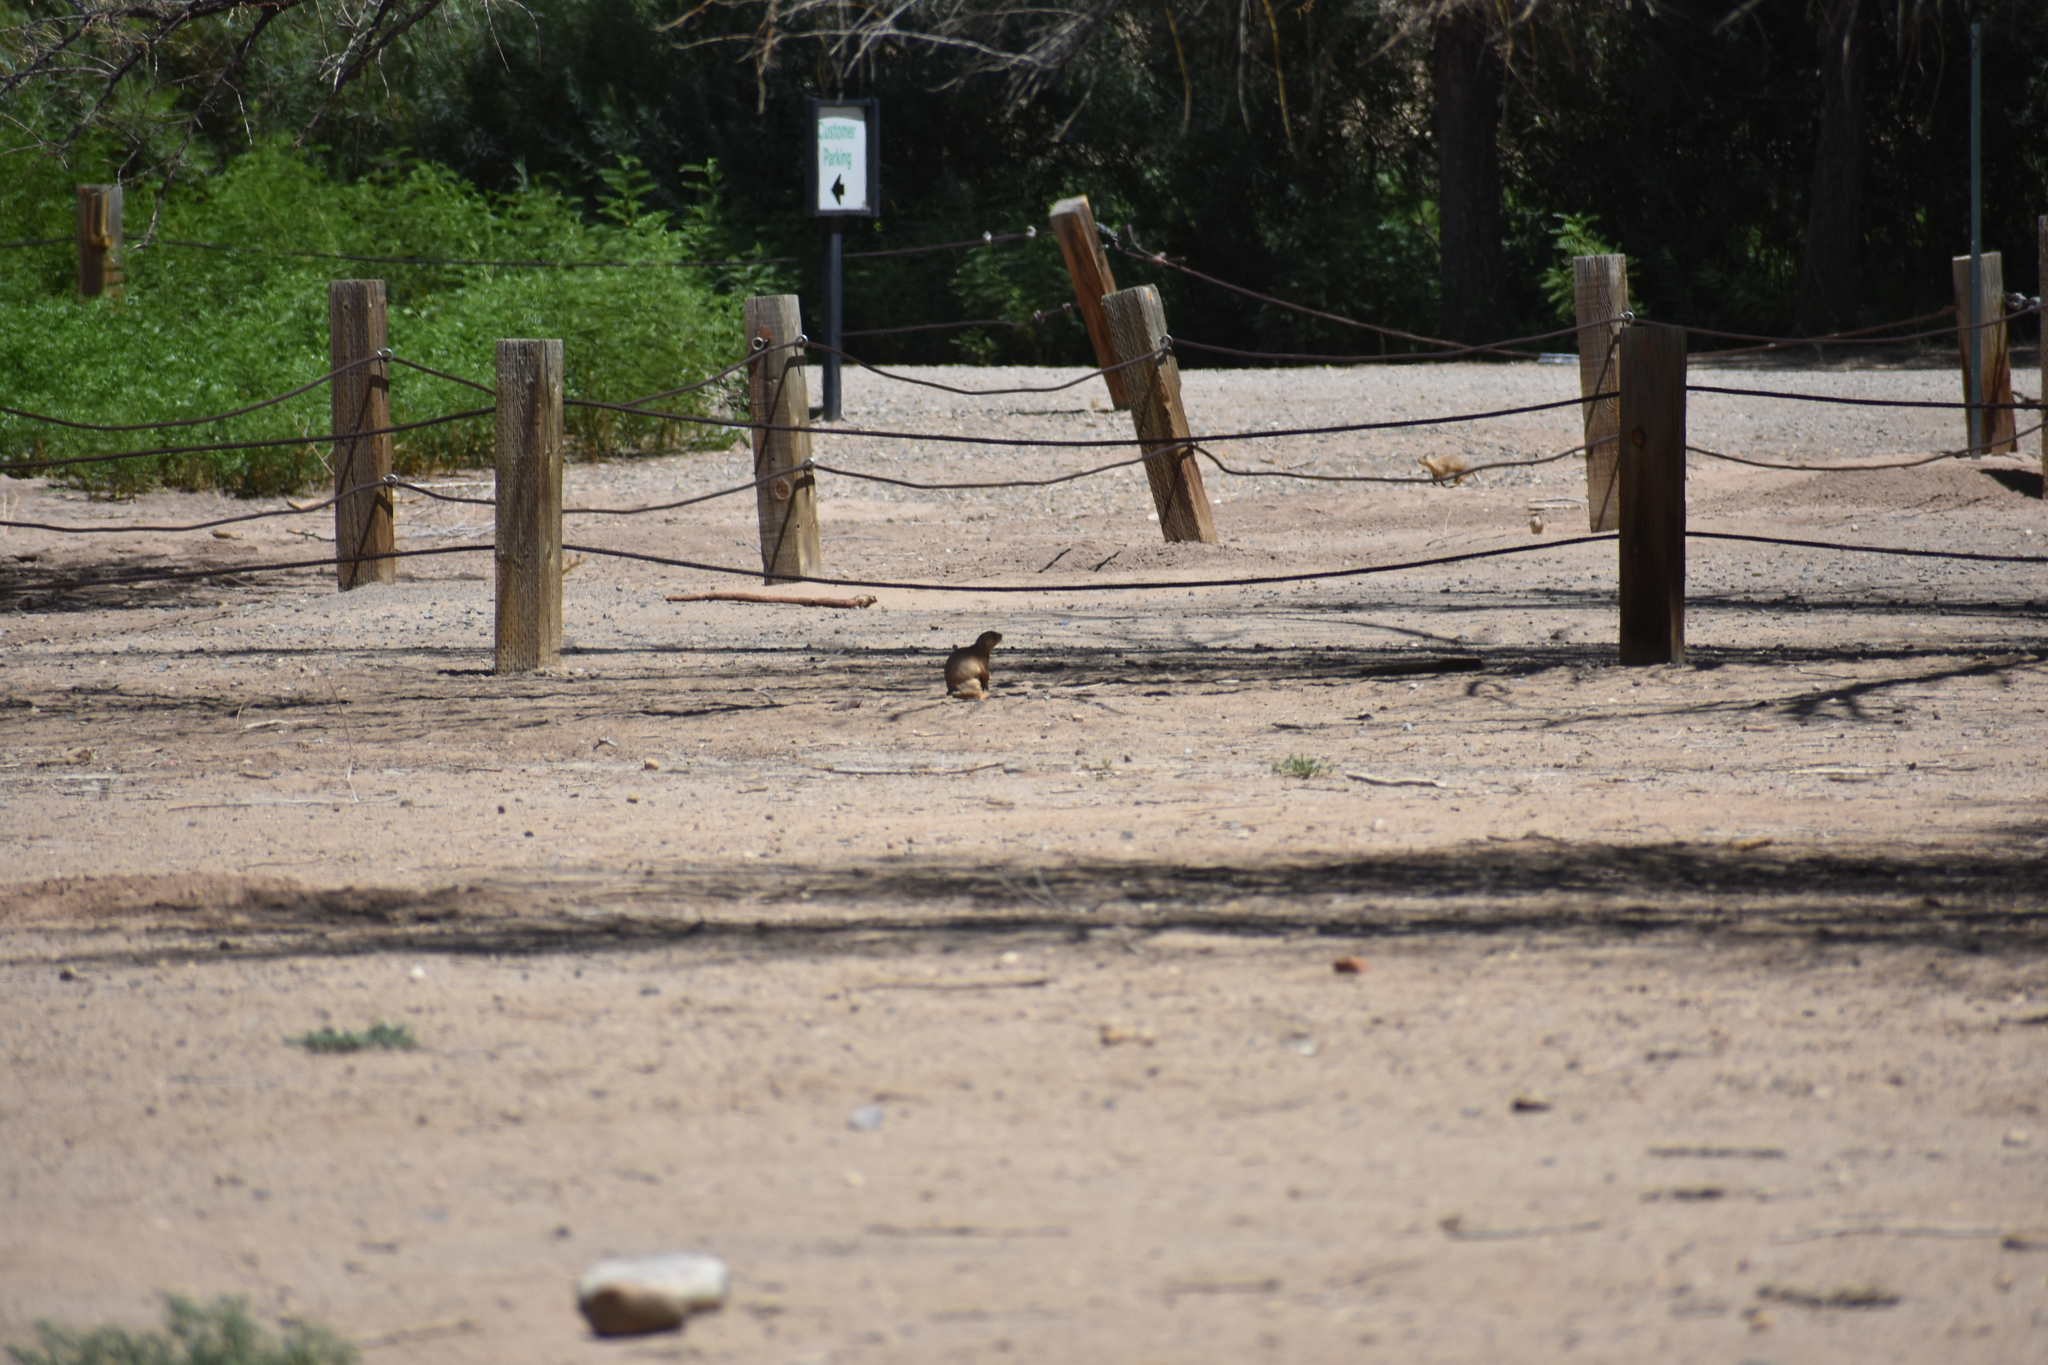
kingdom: Animalia
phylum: Chordata
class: Mammalia
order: Rodentia
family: Sciuridae
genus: Cynomys
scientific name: Cynomys gunnisoni
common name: Gunnison's prairie dog
